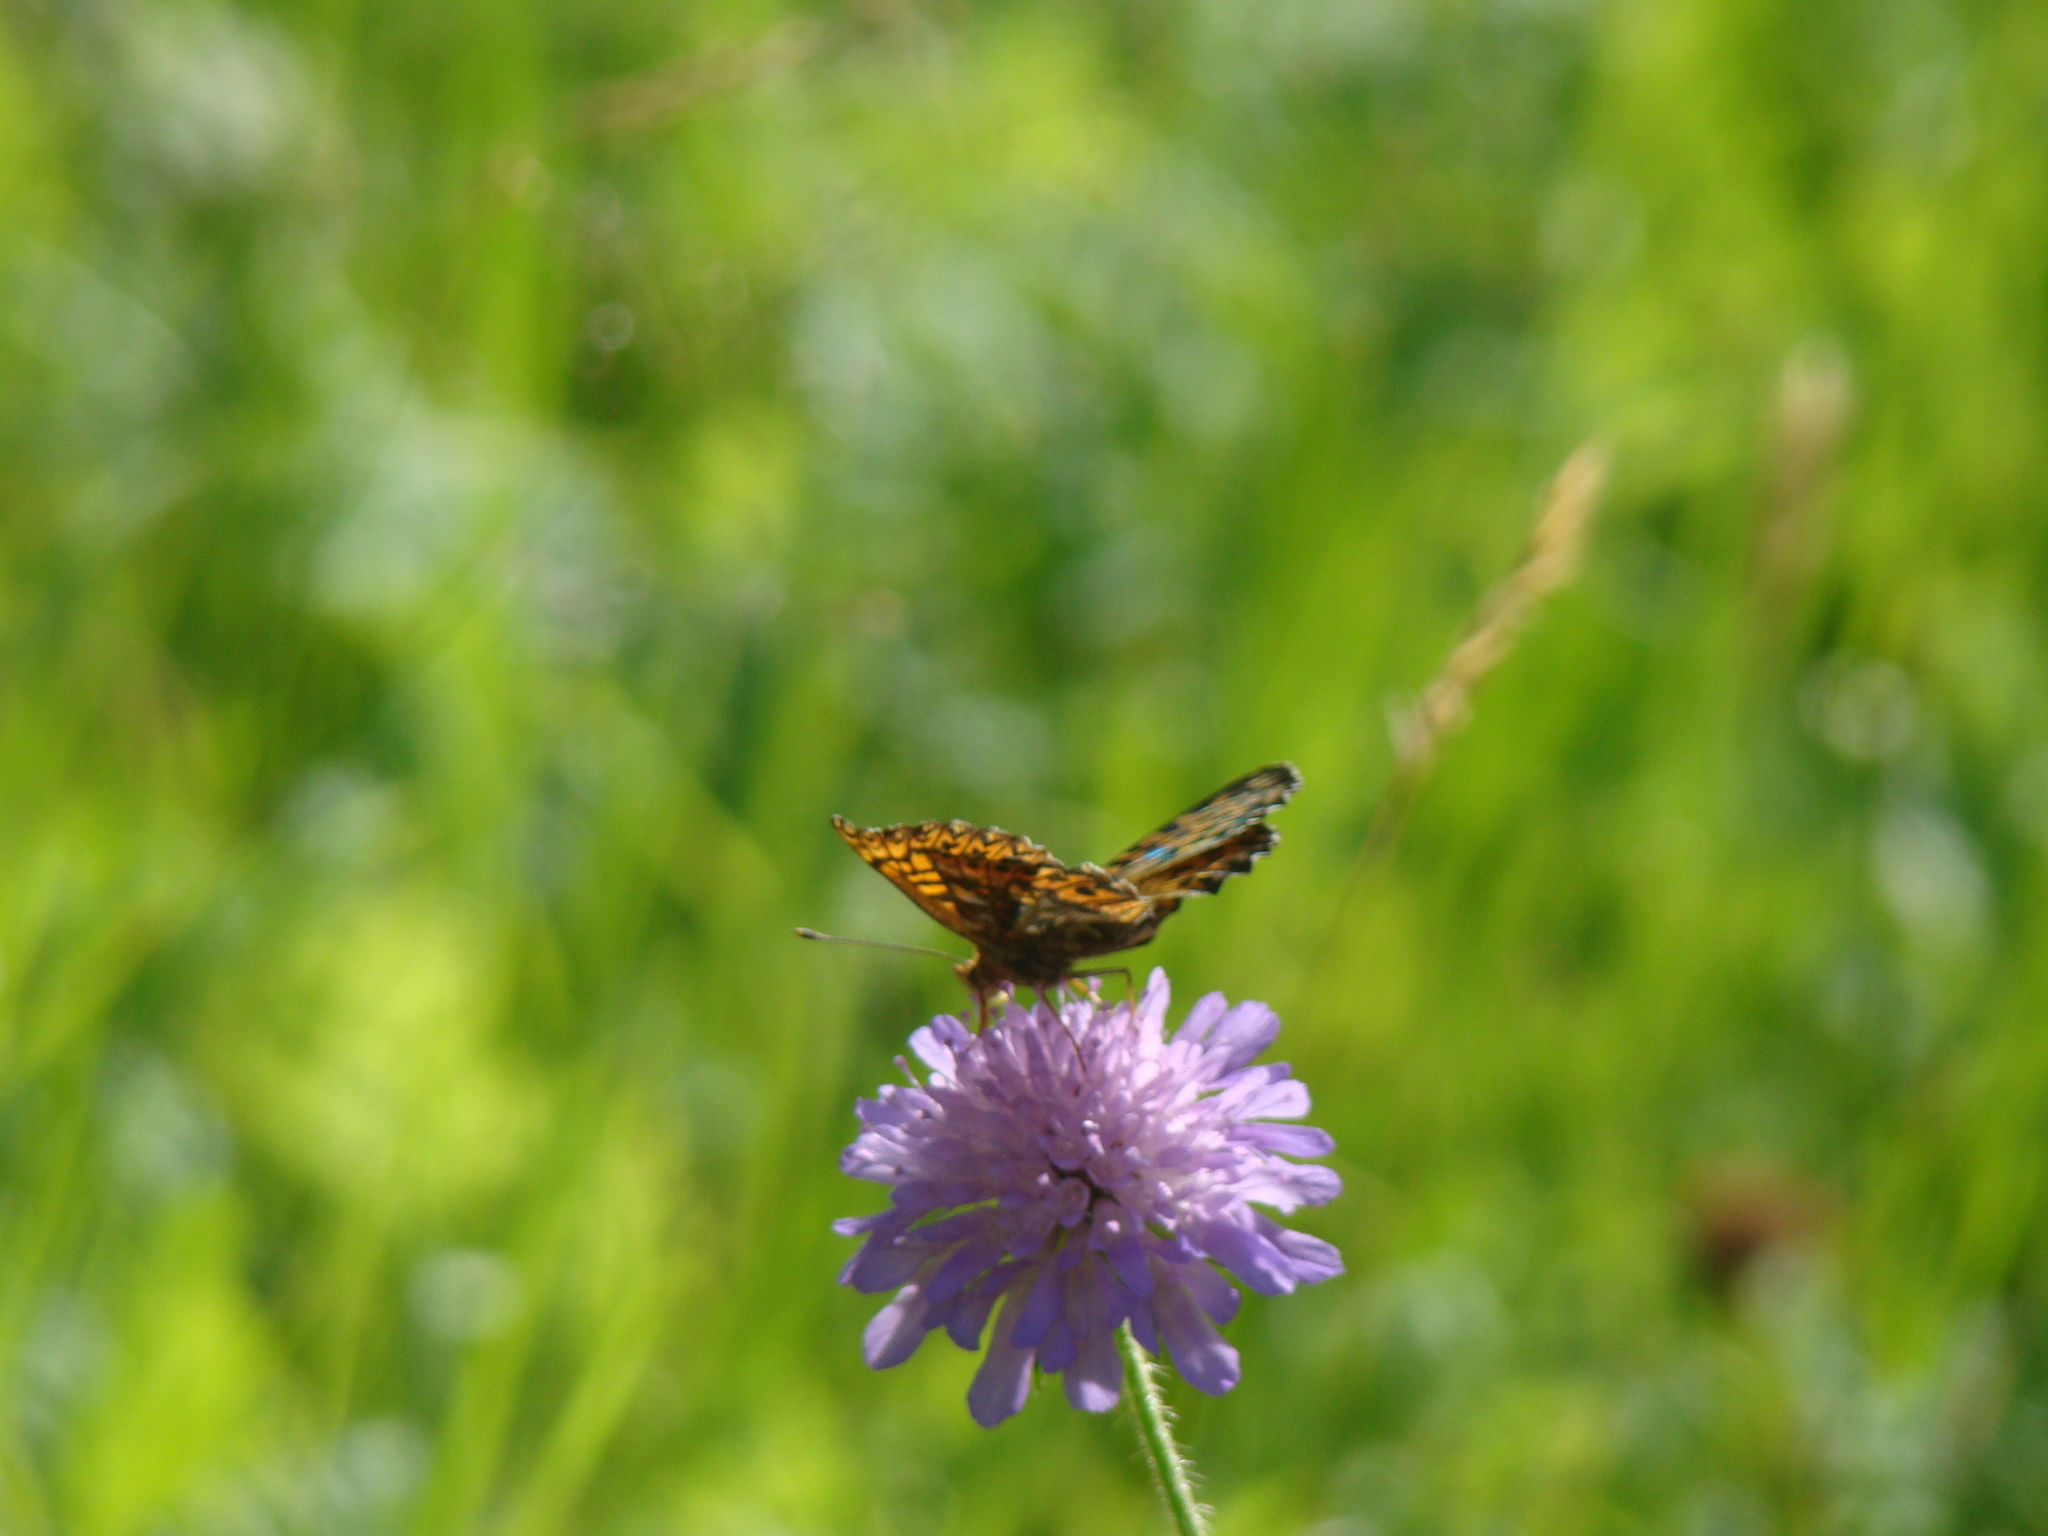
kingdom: Animalia
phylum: Arthropoda
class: Insecta
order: Lepidoptera
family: Nymphalidae
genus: Boloria
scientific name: Boloria titania
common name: Titania's fritillary
